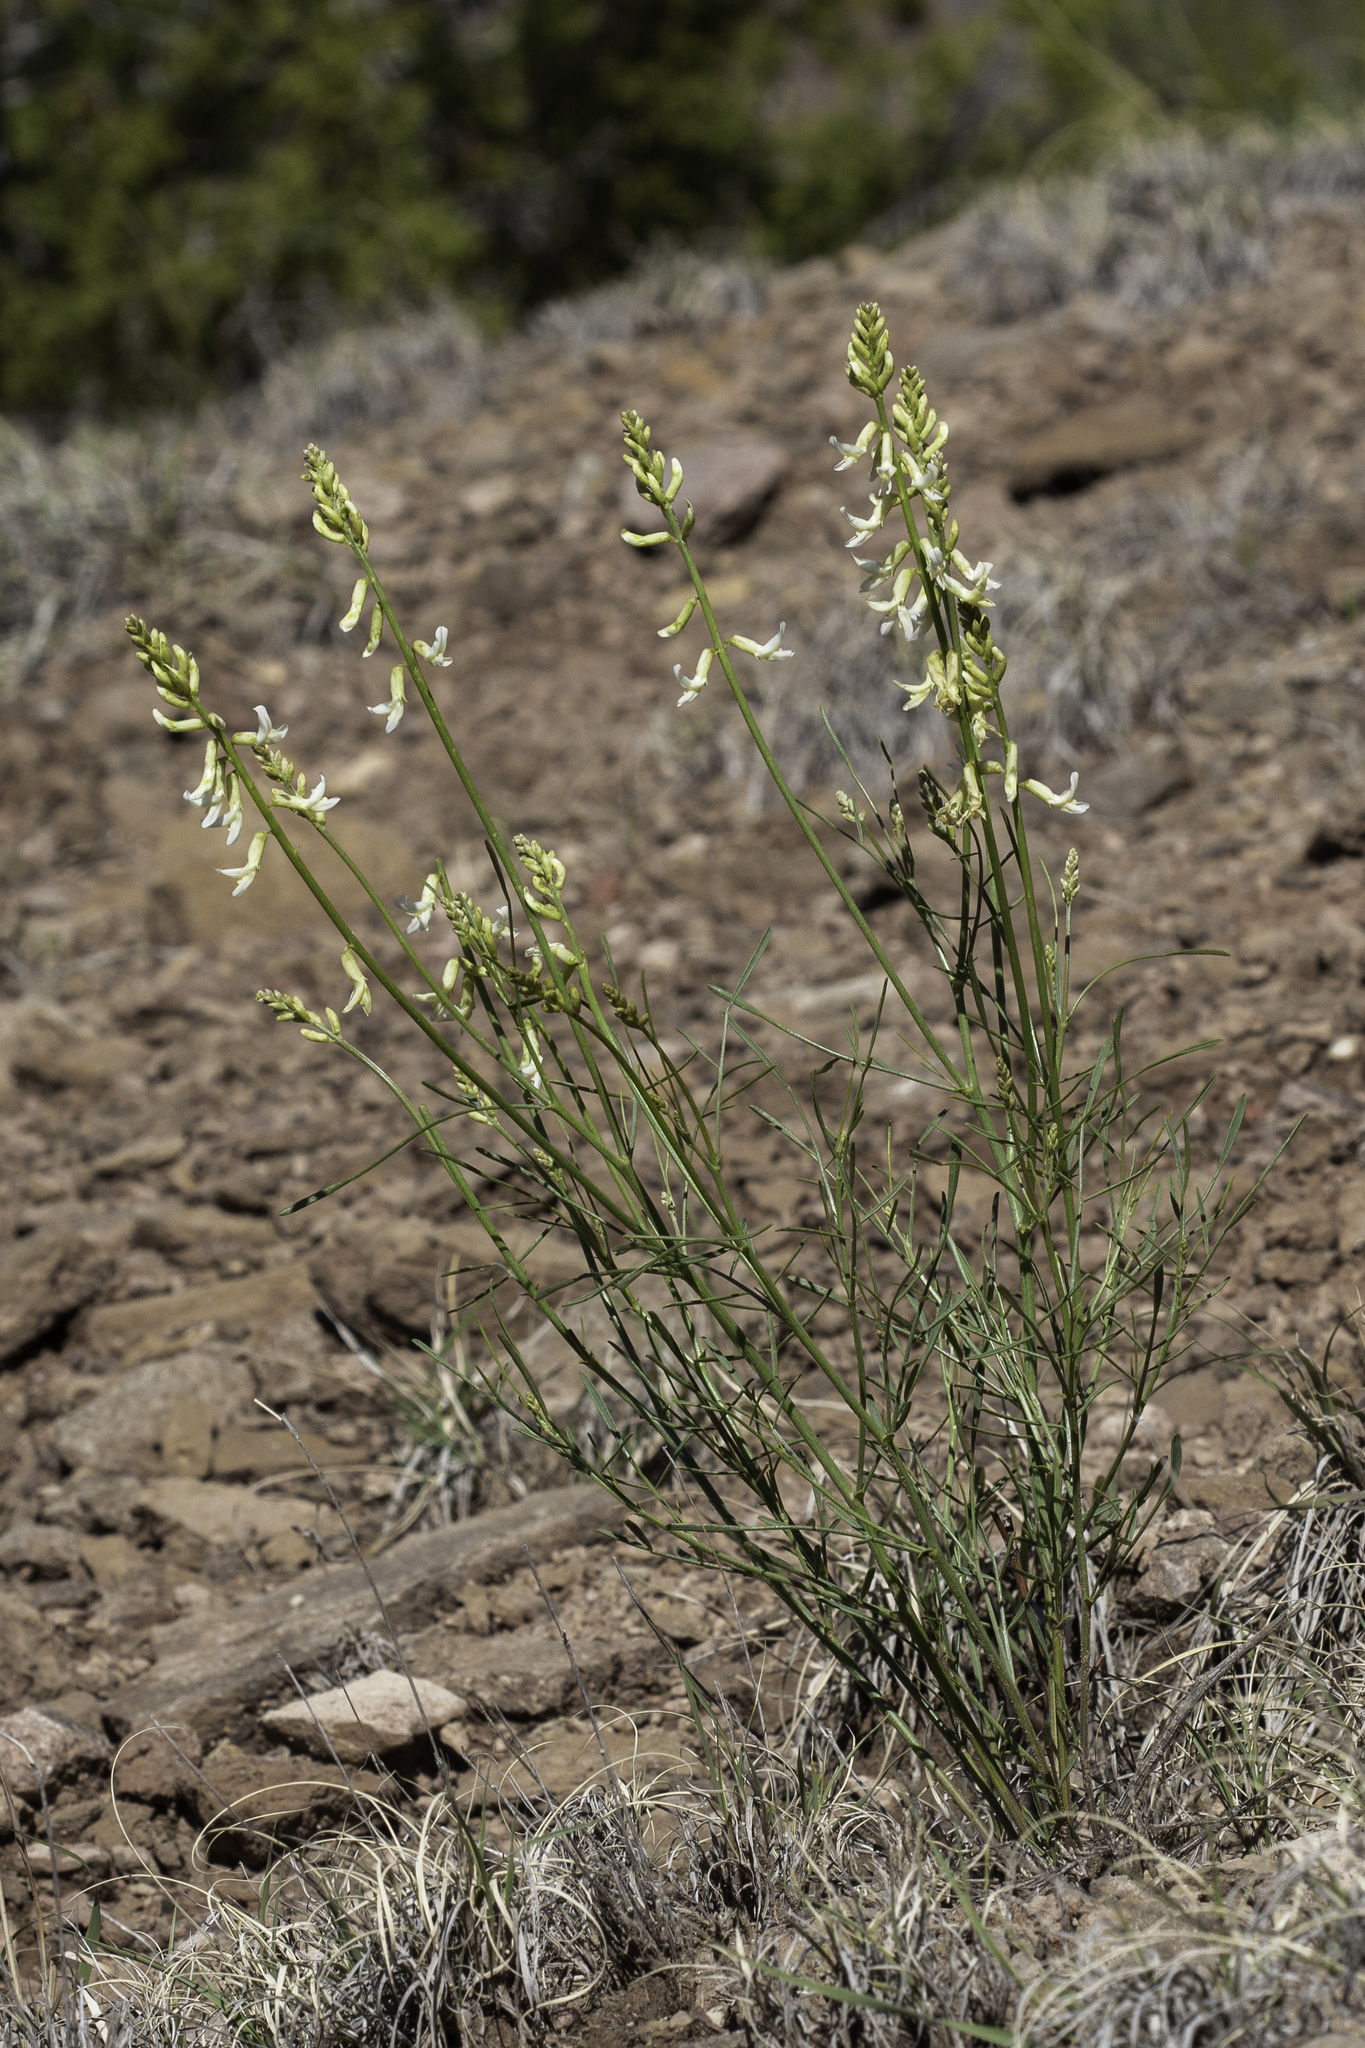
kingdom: Plantae
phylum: Tracheophyta
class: Magnoliopsida
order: Fabales
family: Fabaceae
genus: Astragalus
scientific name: Astragalus lonchocarpus
